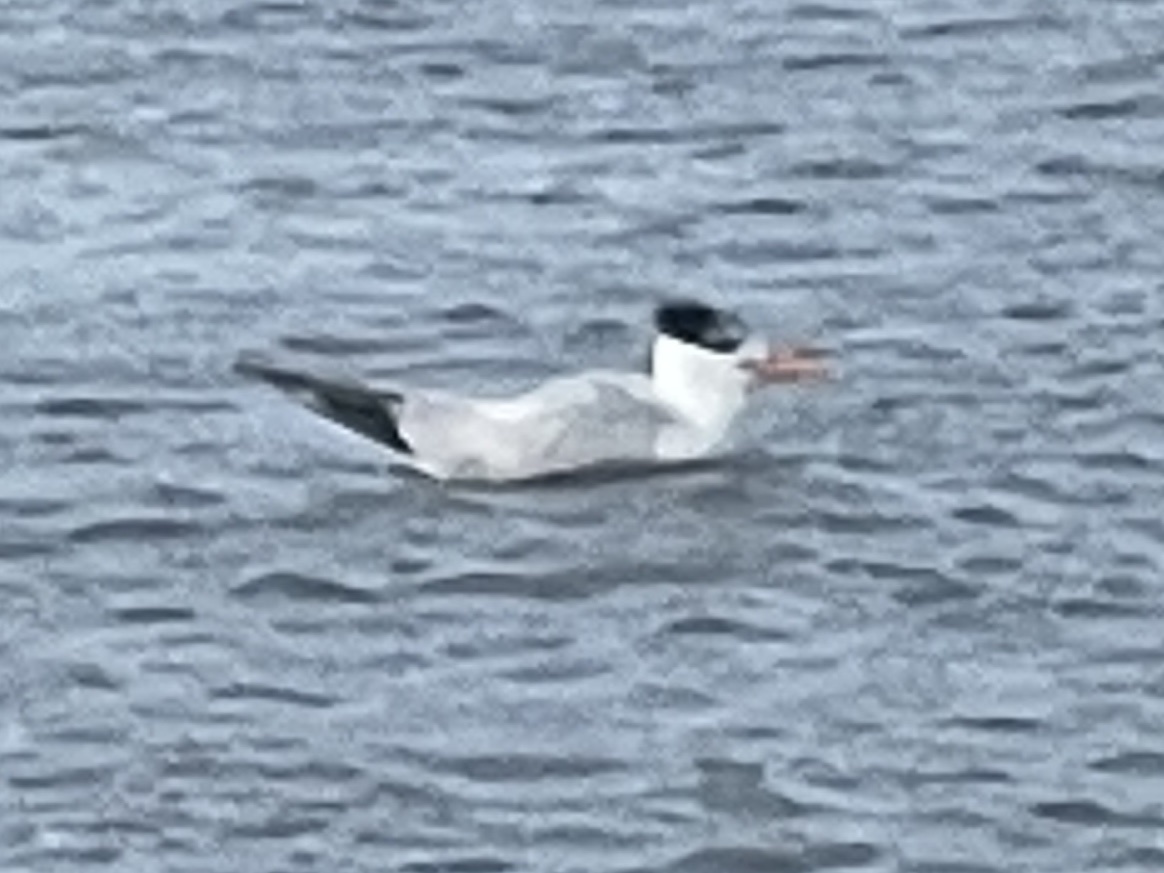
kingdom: Animalia
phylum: Chordata
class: Aves
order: Charadriiformes
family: Laridae
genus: Hydroprogne
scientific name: Hydroprogne caspia
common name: Caspian tern
